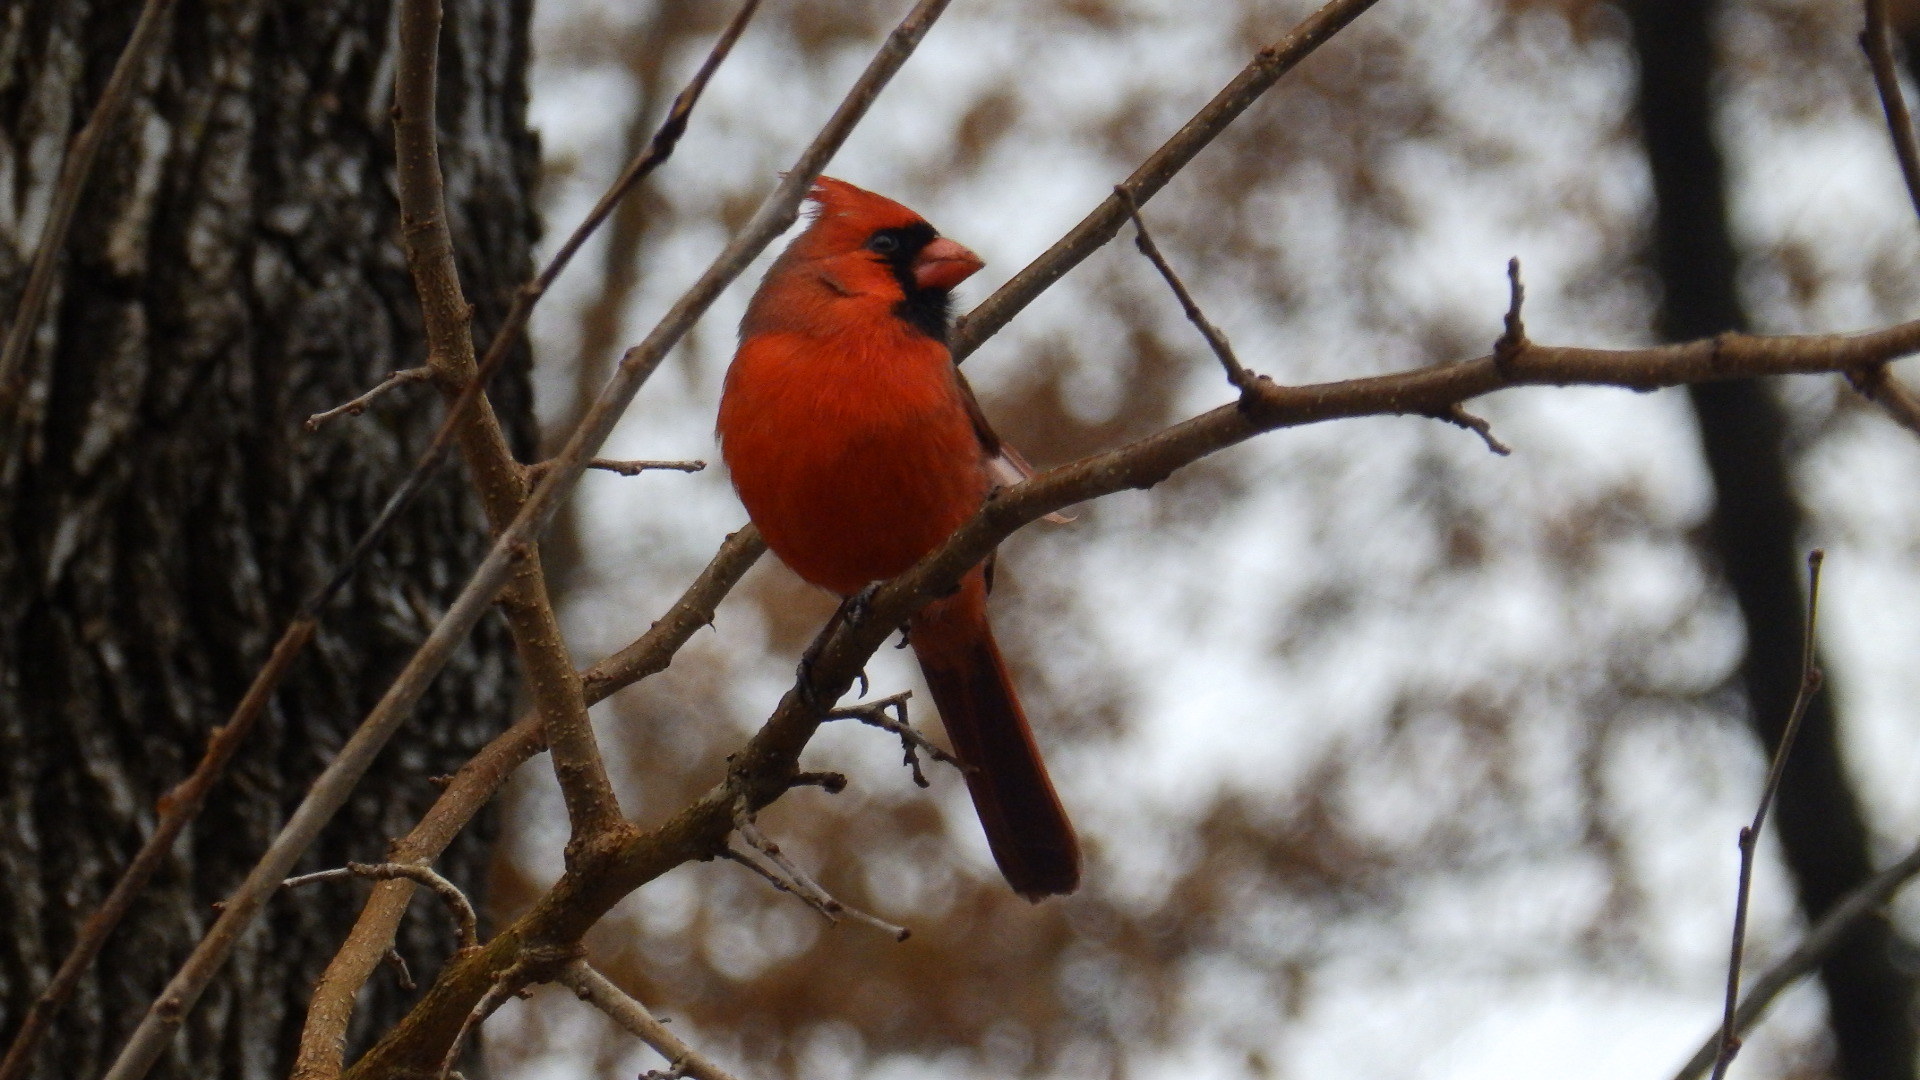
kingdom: Animalia
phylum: Chordata
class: Aves
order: Passeriformes
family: Cardinalidae
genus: Cardinalis
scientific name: Cardinalis cardinalis
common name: Northern cardinal
